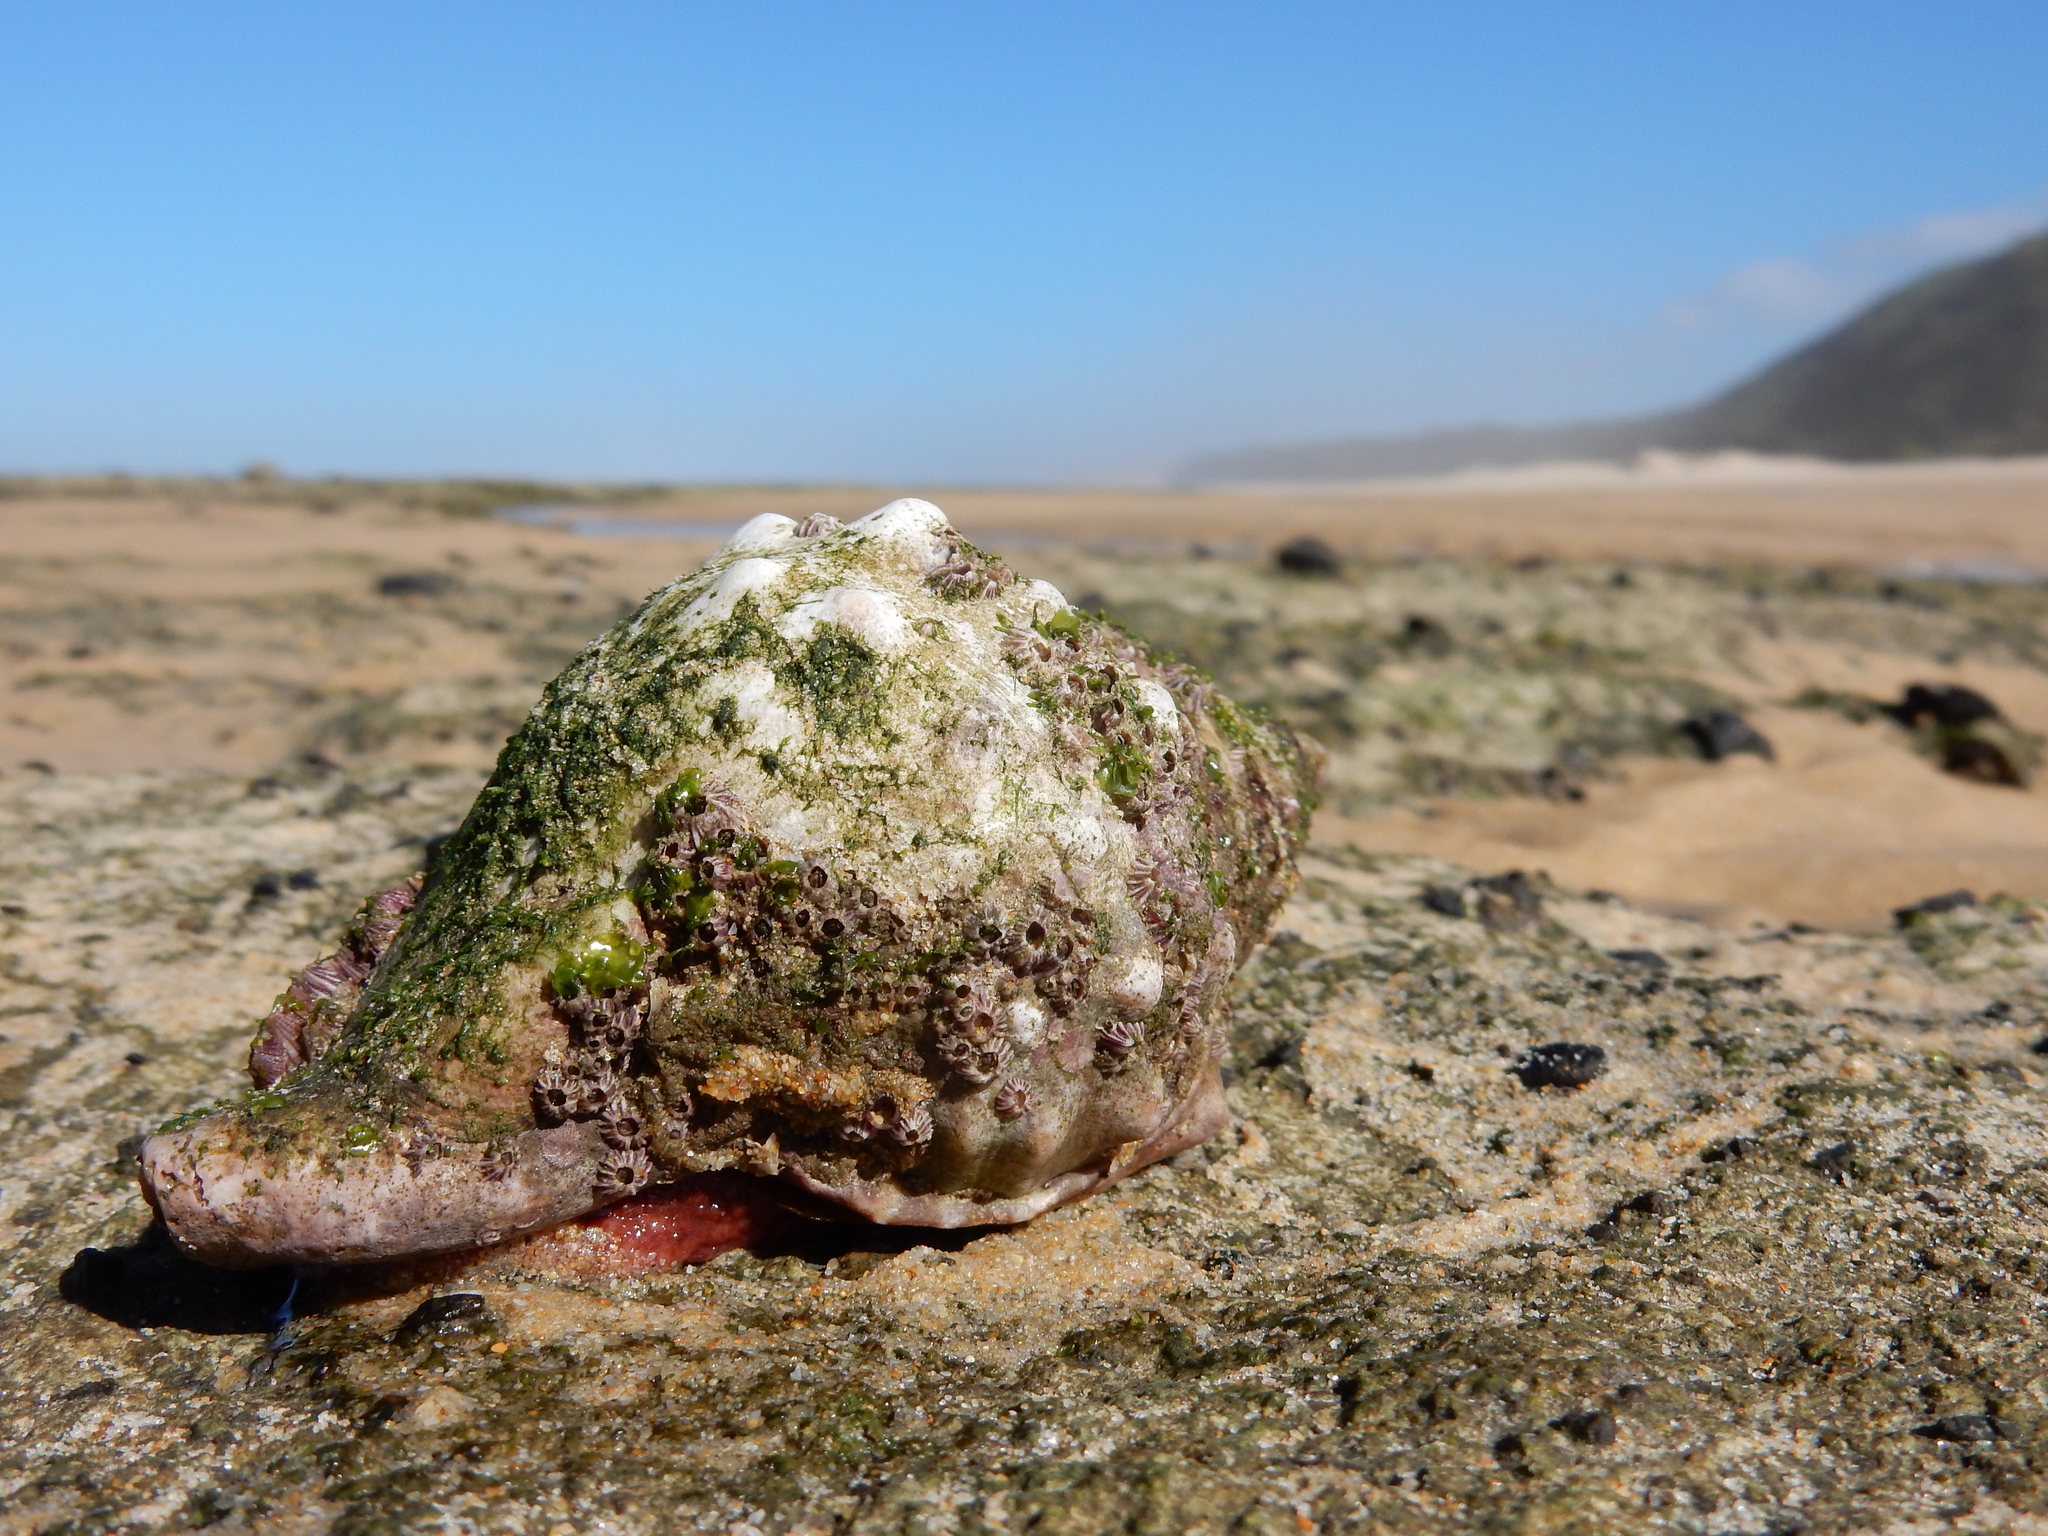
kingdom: Animalia
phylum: Mollusca
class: Gastropoda
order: Littorinimorpha
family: Charoniidae
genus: Charonia
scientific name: Charonia lampas
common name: Knobbed triton
